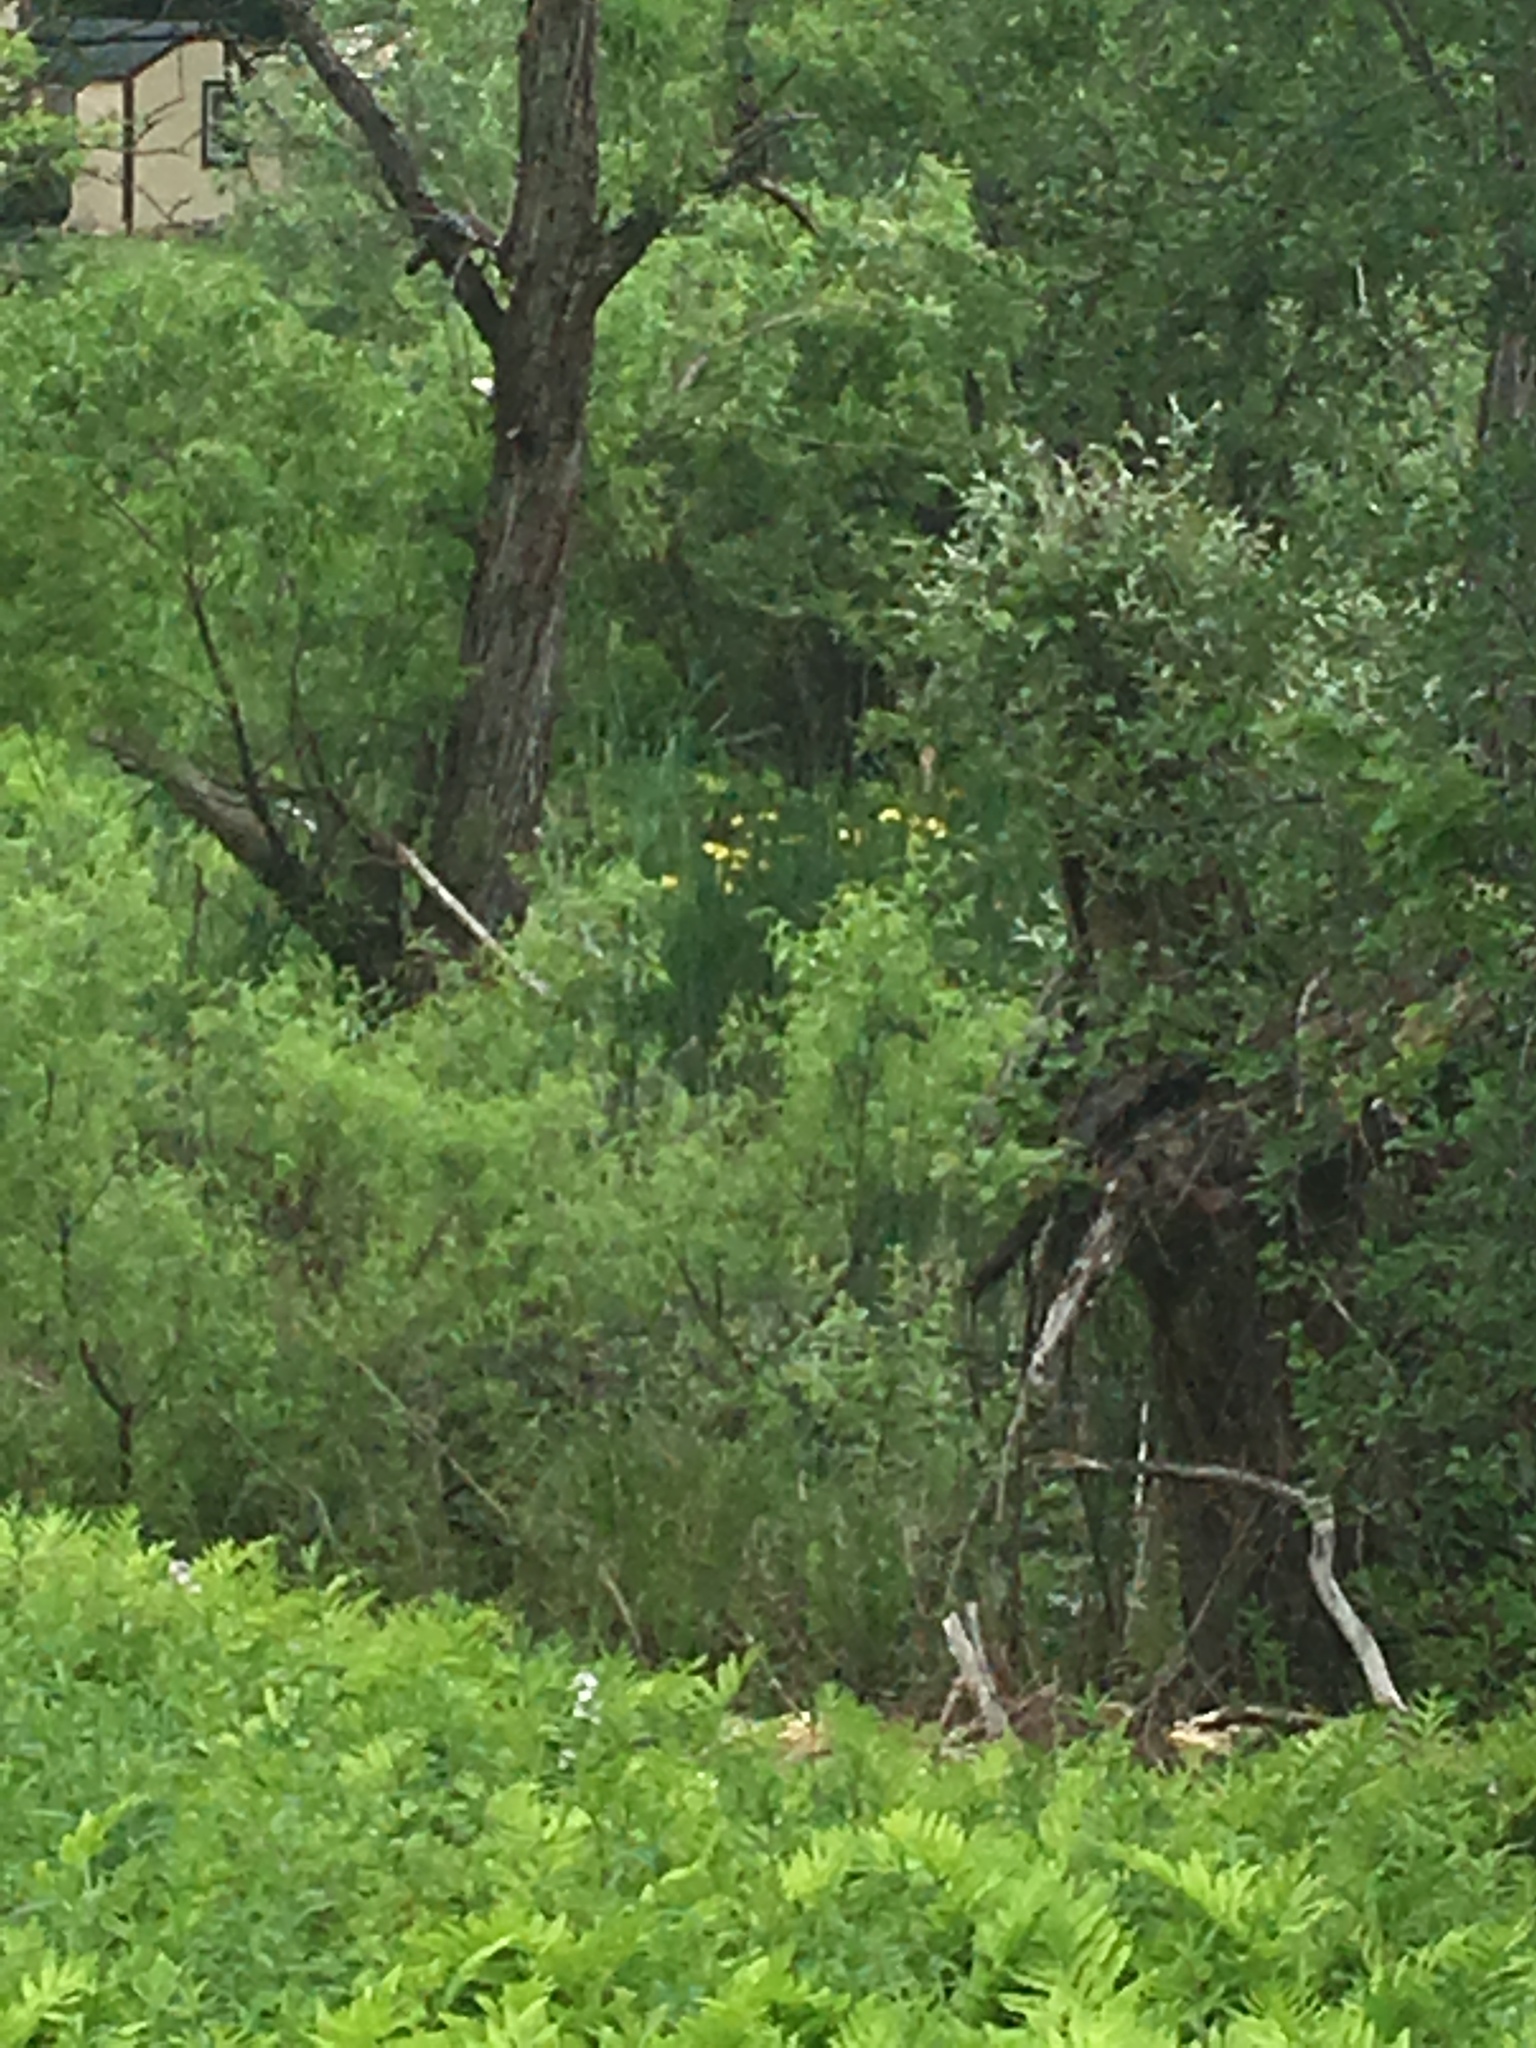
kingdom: Plantae
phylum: Tracheophyta
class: Liliopsida
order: Asparagales
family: Iridaceae
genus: Iris
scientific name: Iris pseudacorus
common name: Yellow flag
